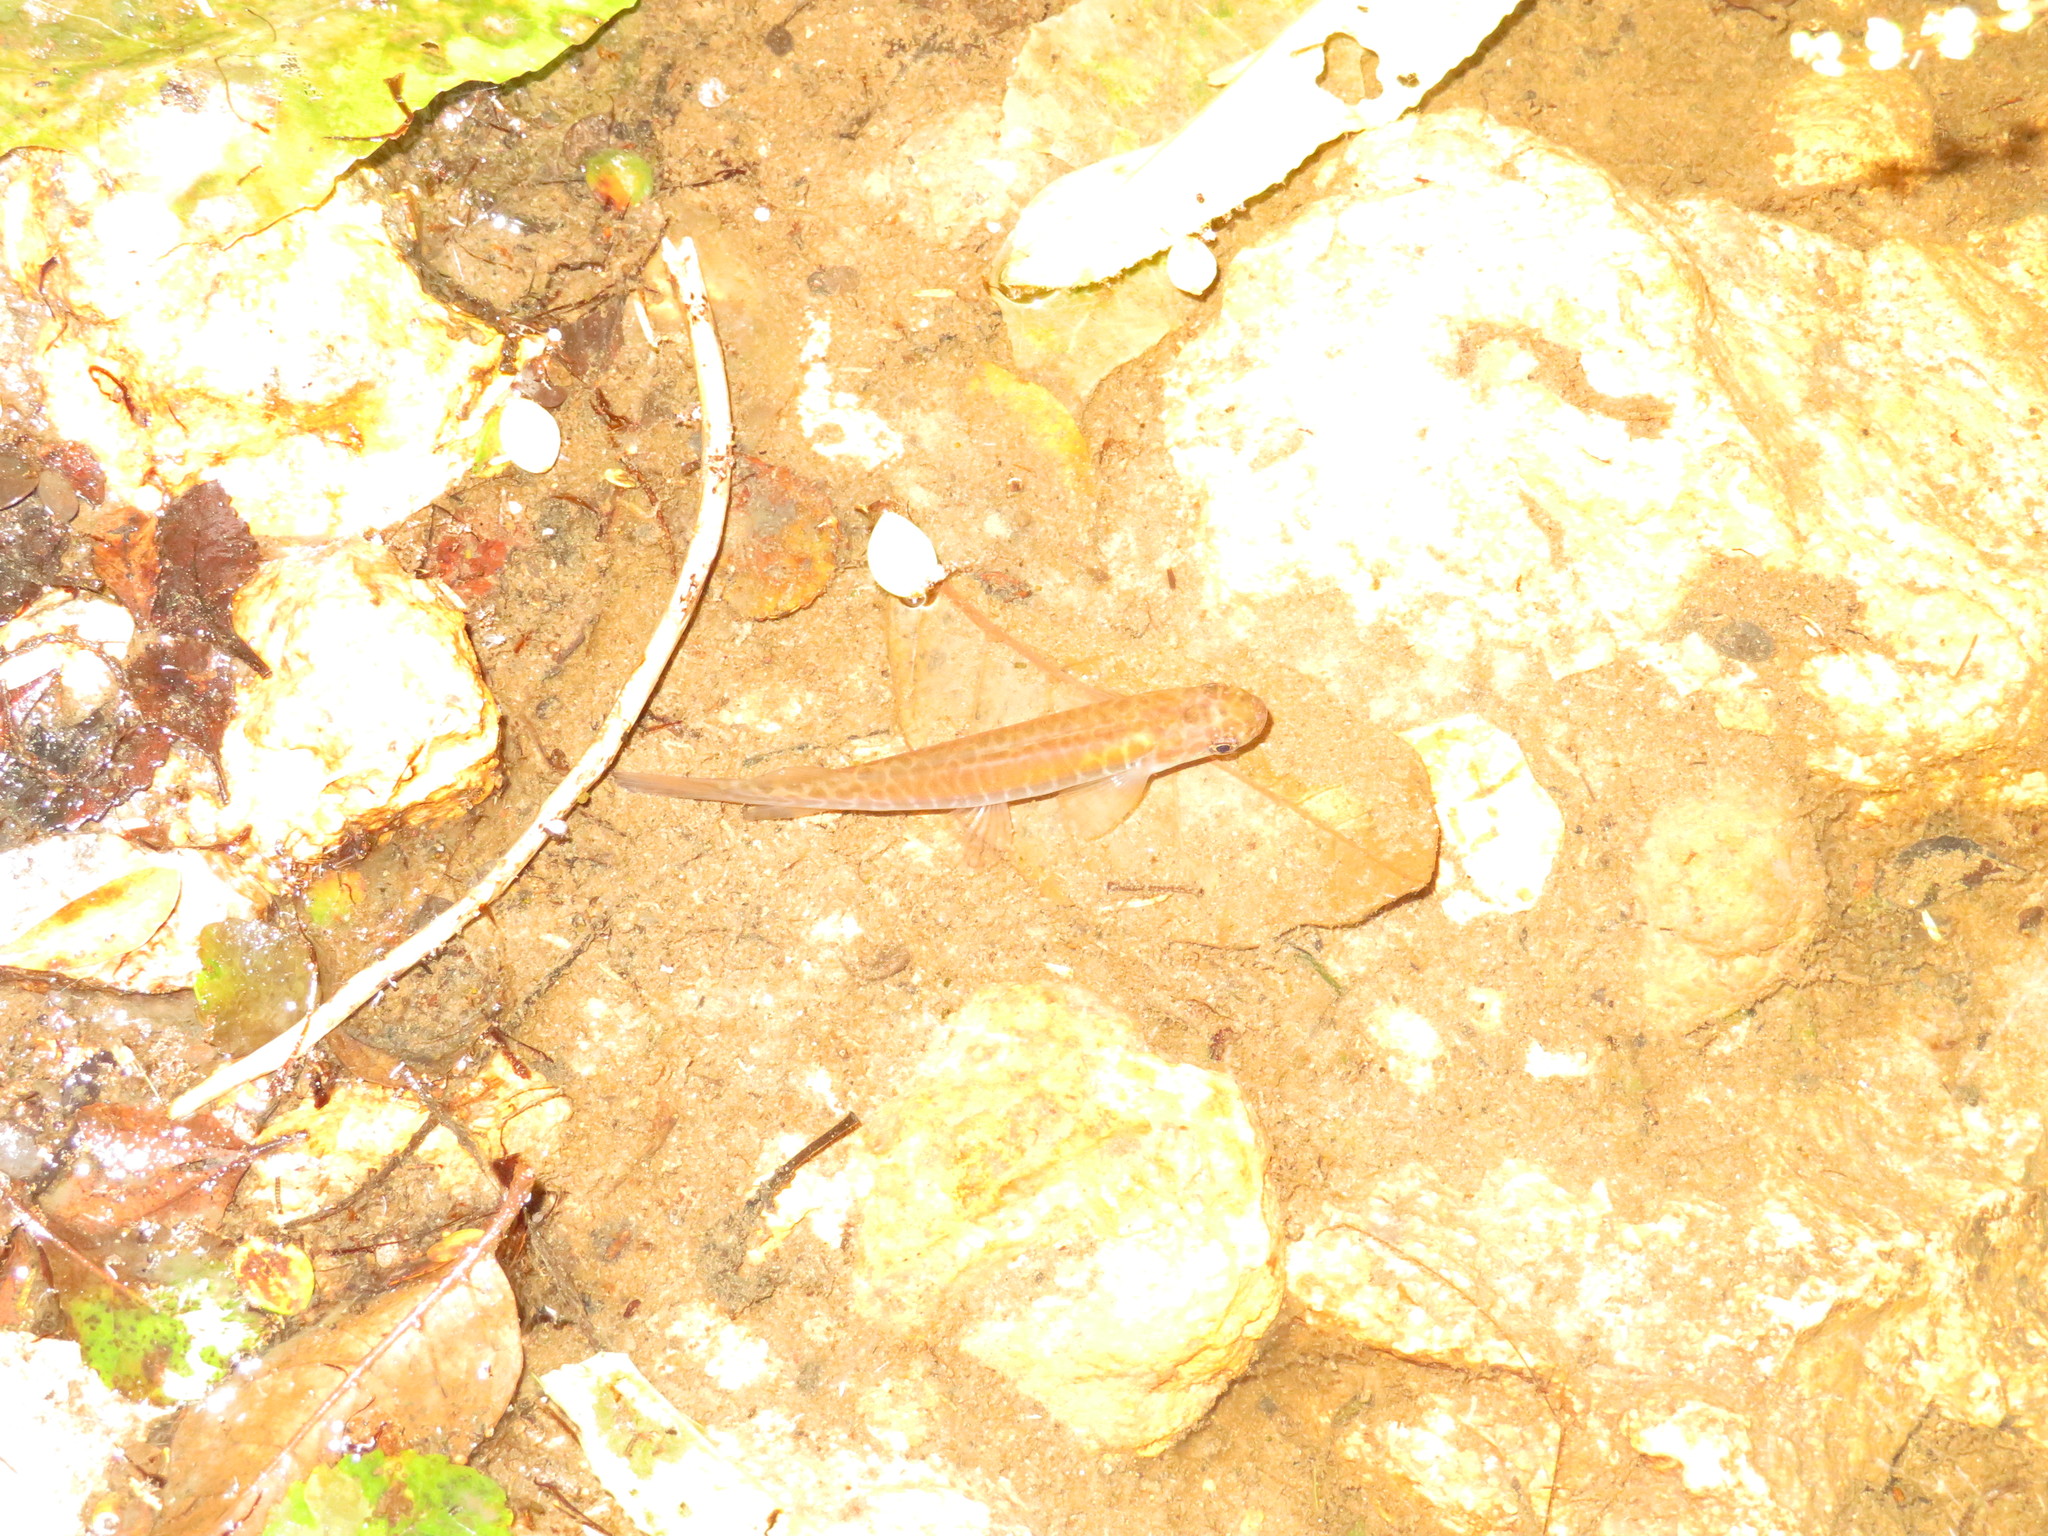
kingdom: Animalia
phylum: Chordata
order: Osmeriformes
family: Galaxiidae
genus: Galaxias
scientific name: Galaxias fasciatus
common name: Banded kokopu
